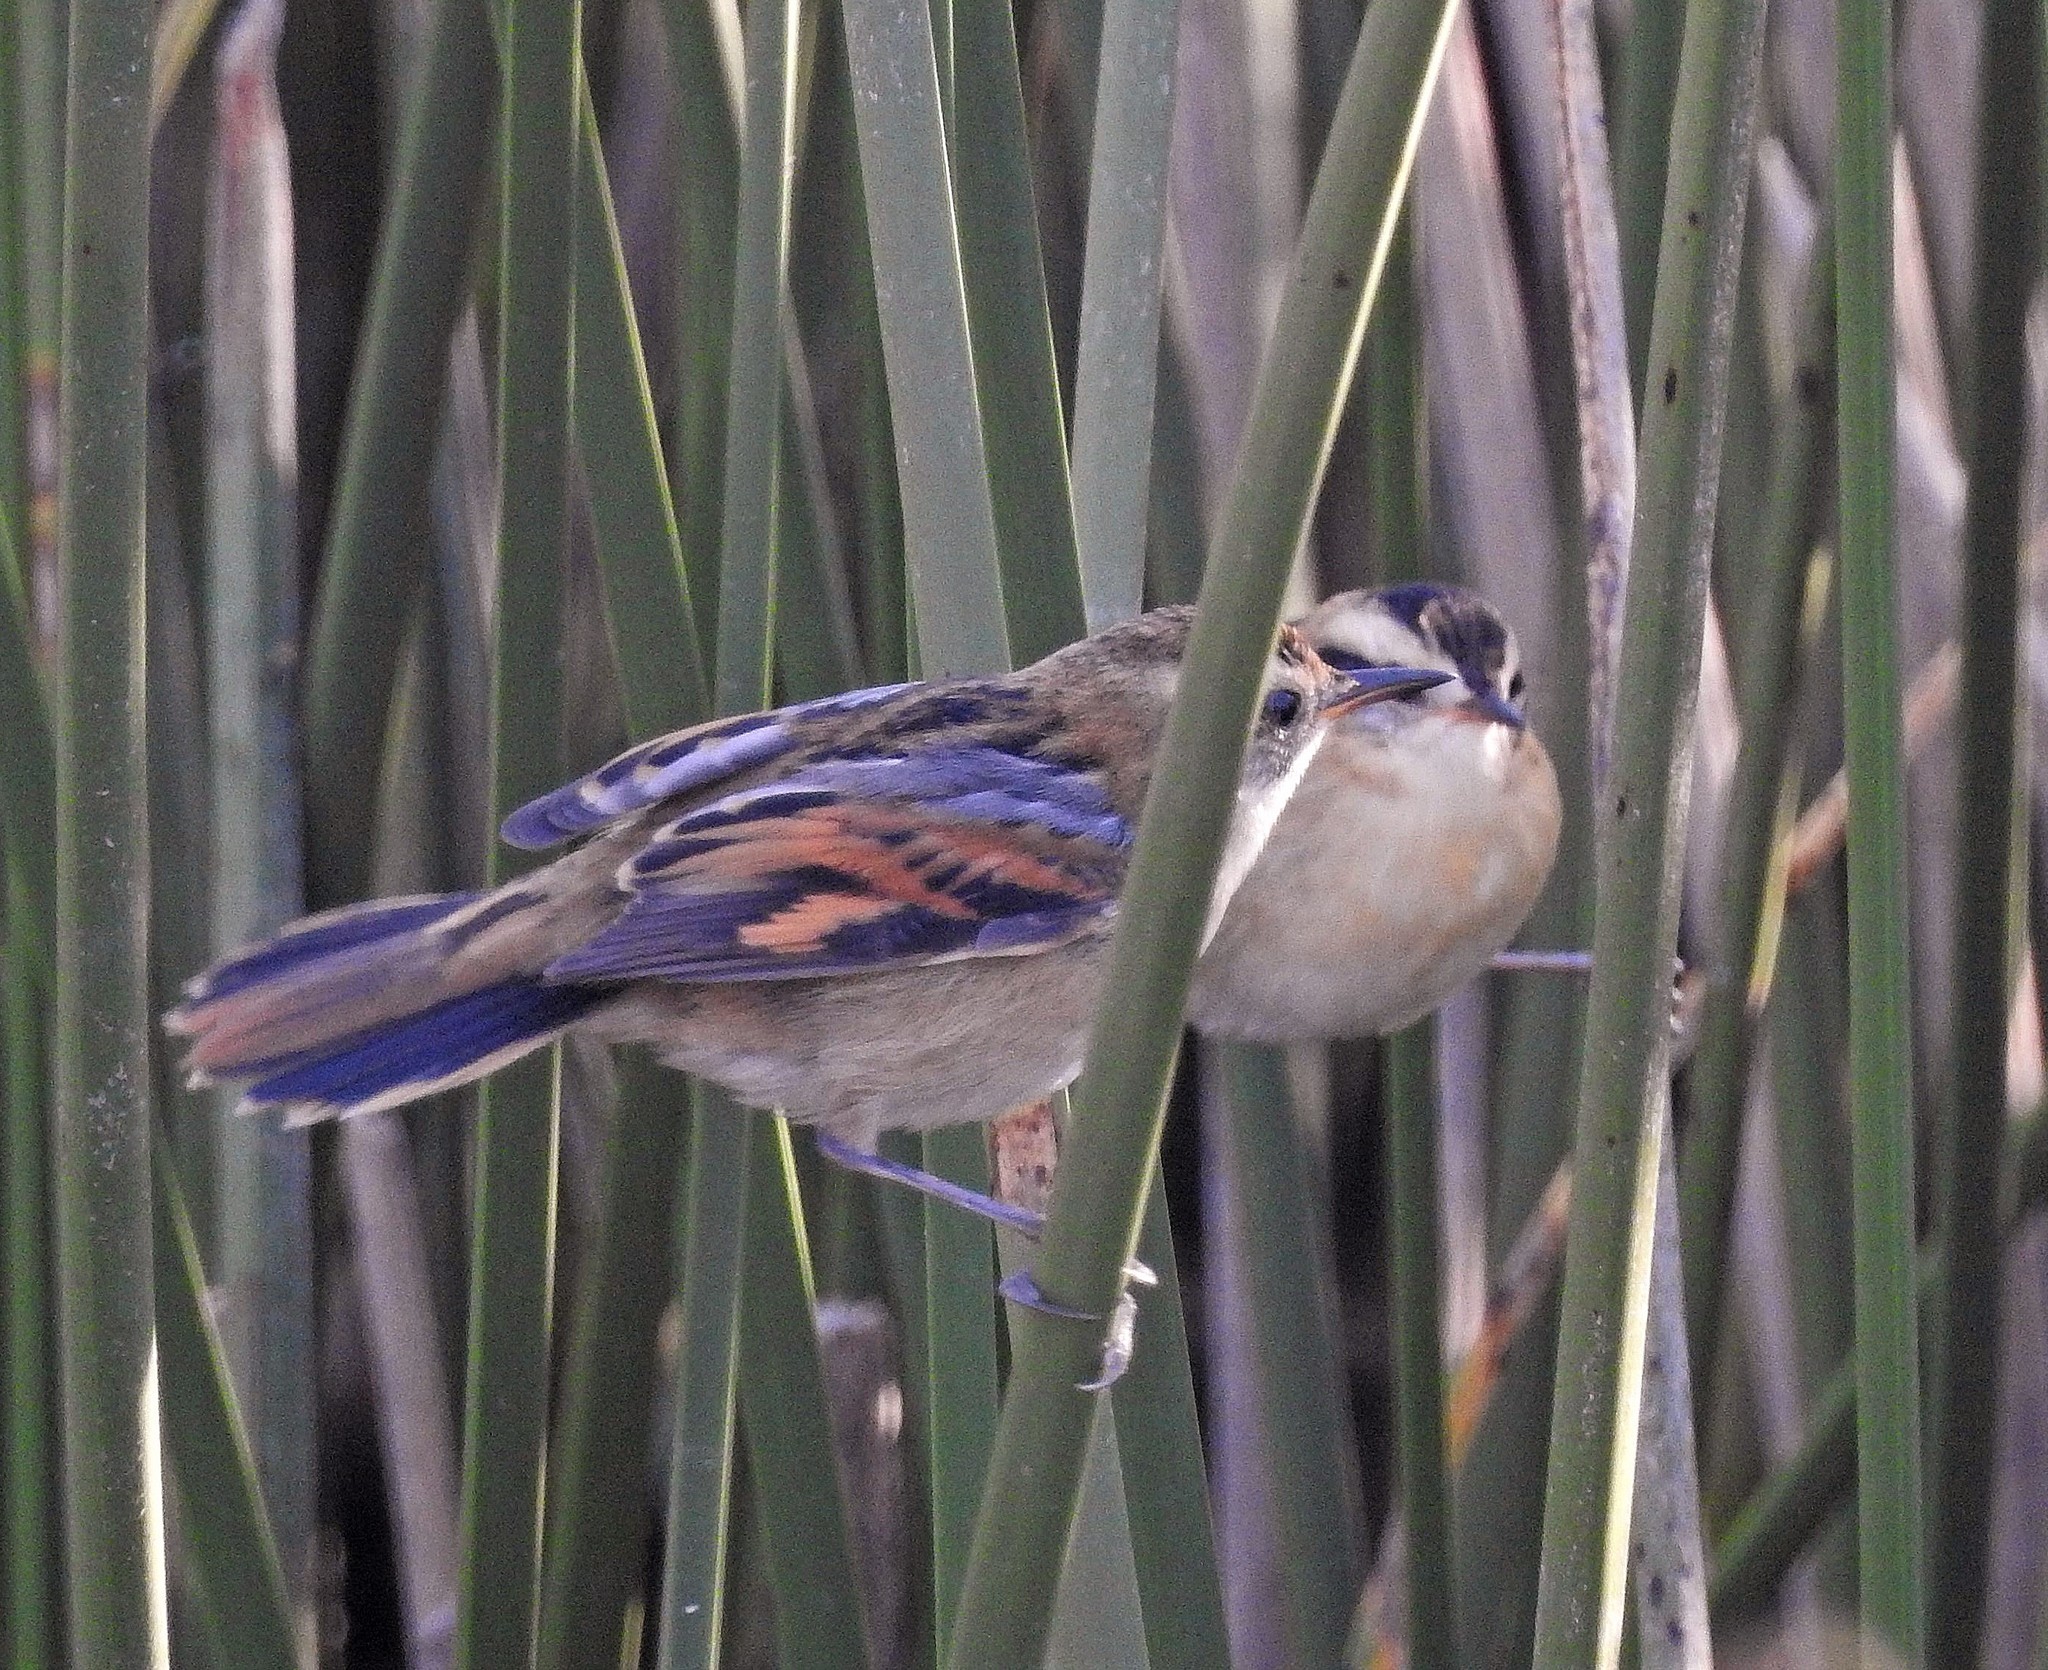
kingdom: Animalia
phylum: Chordata
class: Aves
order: Passeriformes
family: Furnariidae
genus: Phleocryptes
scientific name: Phleocryptes melanops
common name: Wren-like rushbird
